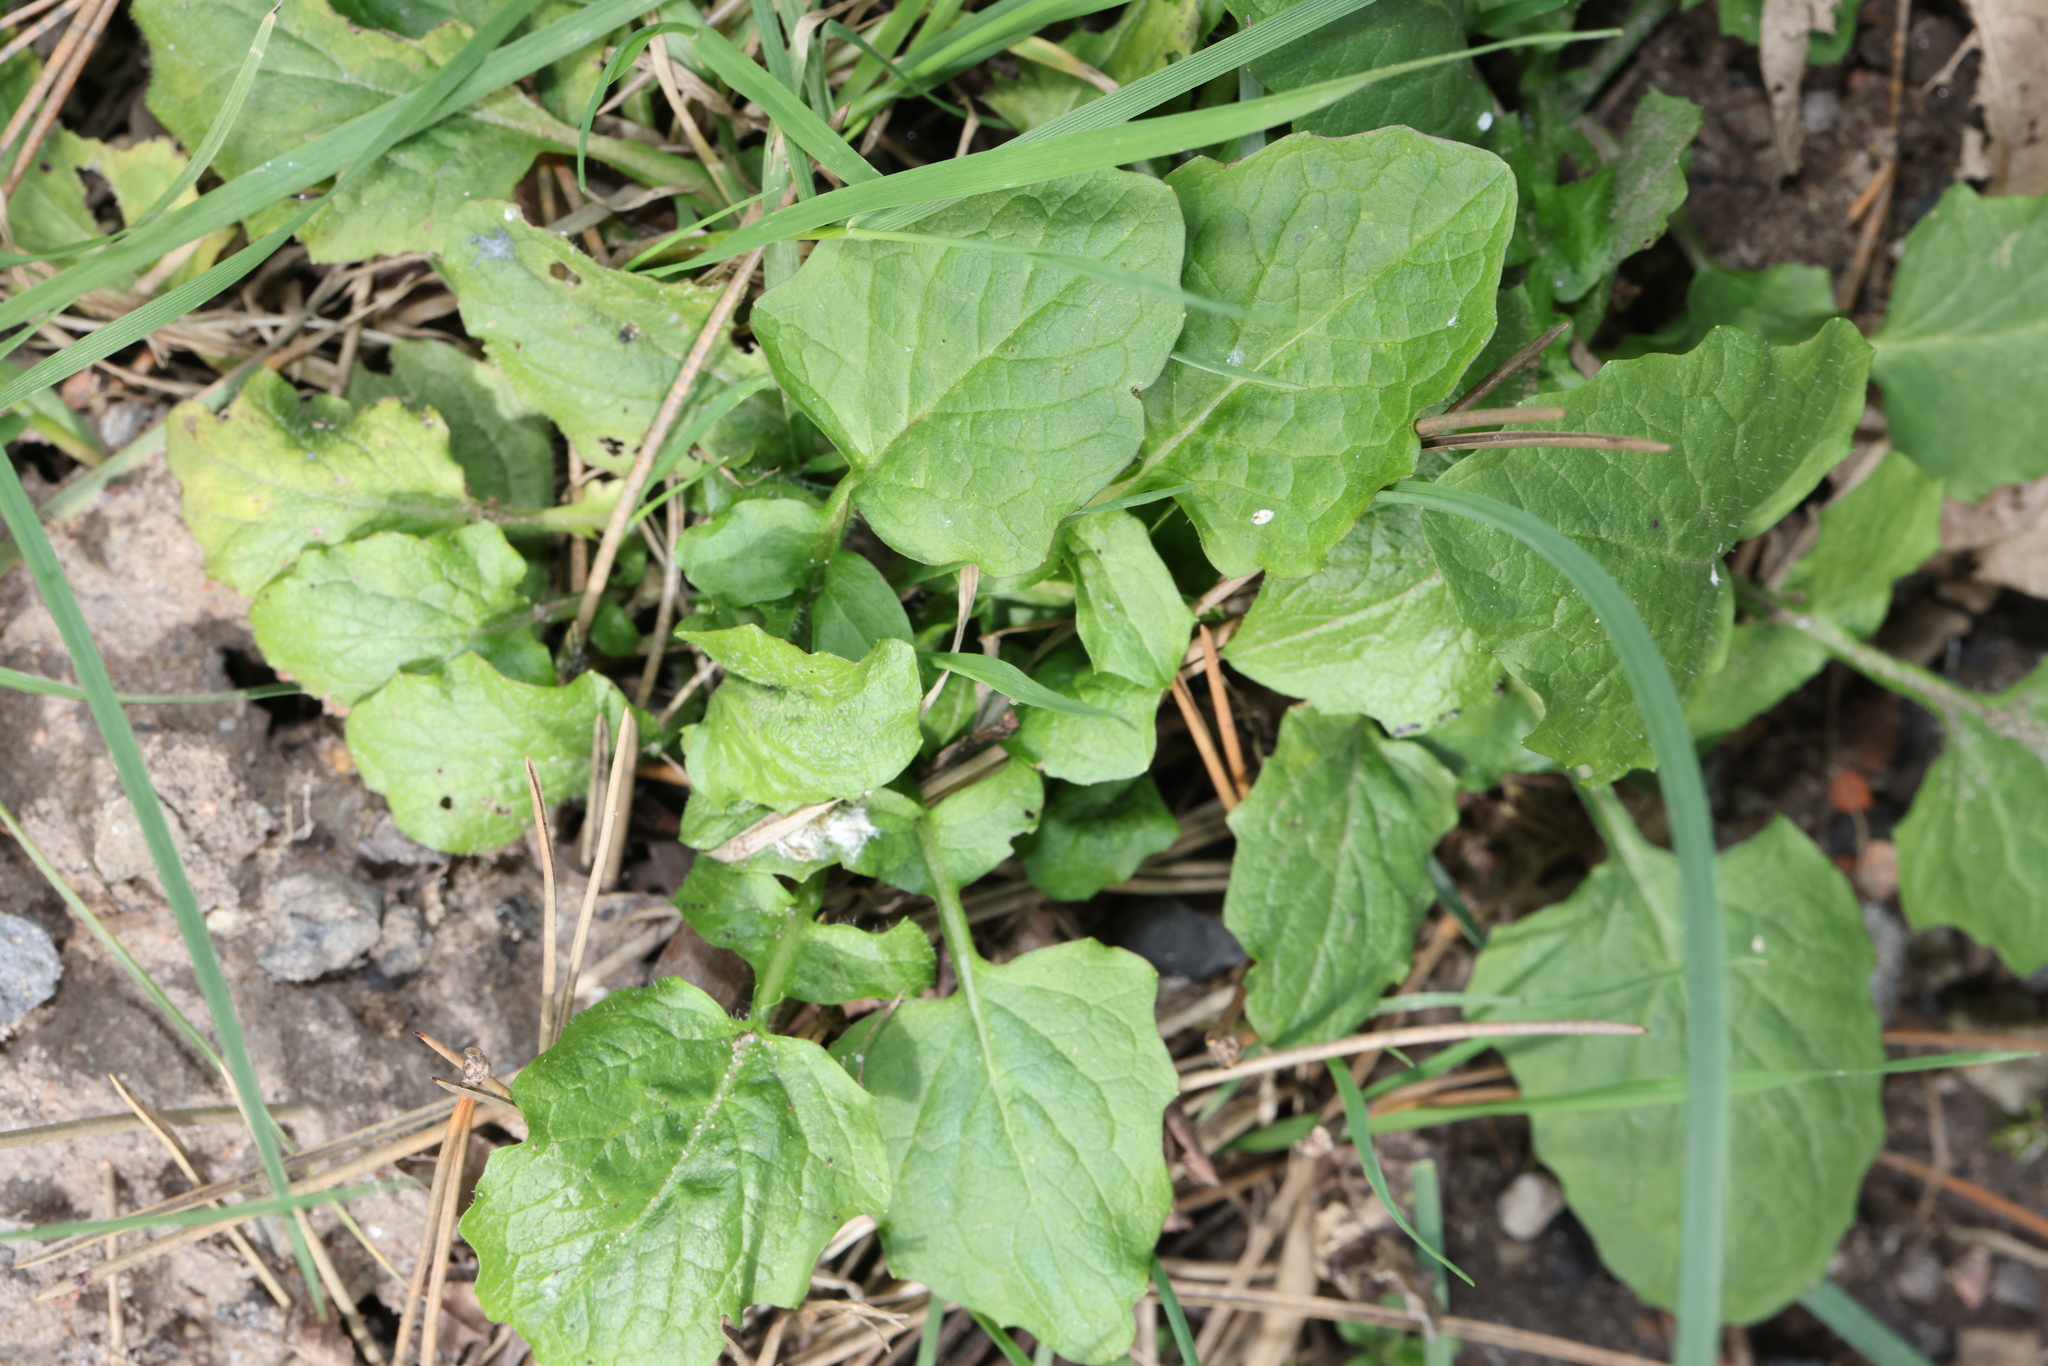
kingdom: Plantae
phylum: Tracheophyta
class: Magnoliopsida
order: Asterales
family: Asteraceae
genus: Lapsana
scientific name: Lapsana communis
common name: Nipplewort
